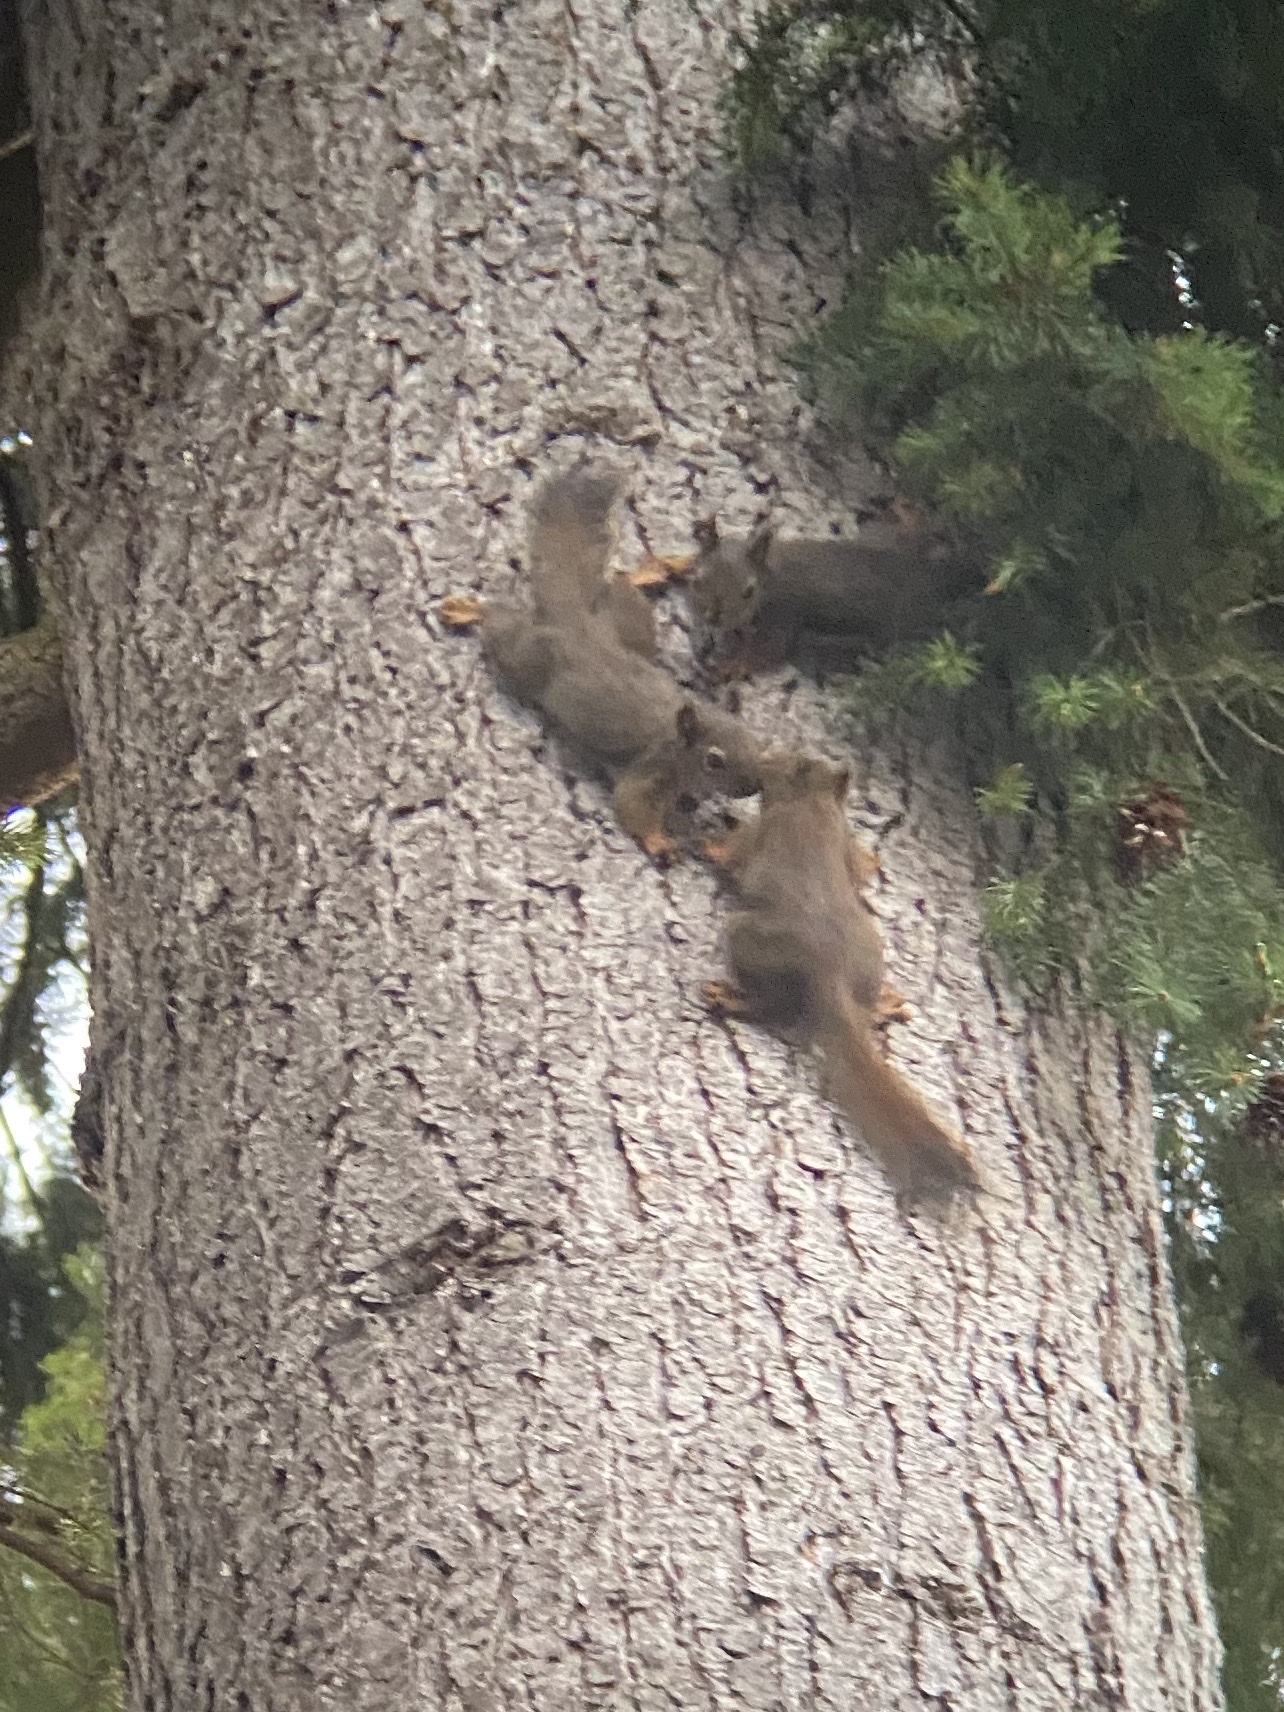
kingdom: Animalia
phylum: Chordata
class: Mammalia
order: Rodentia
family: Sciuridae
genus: Tamiasciurus
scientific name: Tamiasciurus douglasii
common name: Douglas's squirrel
